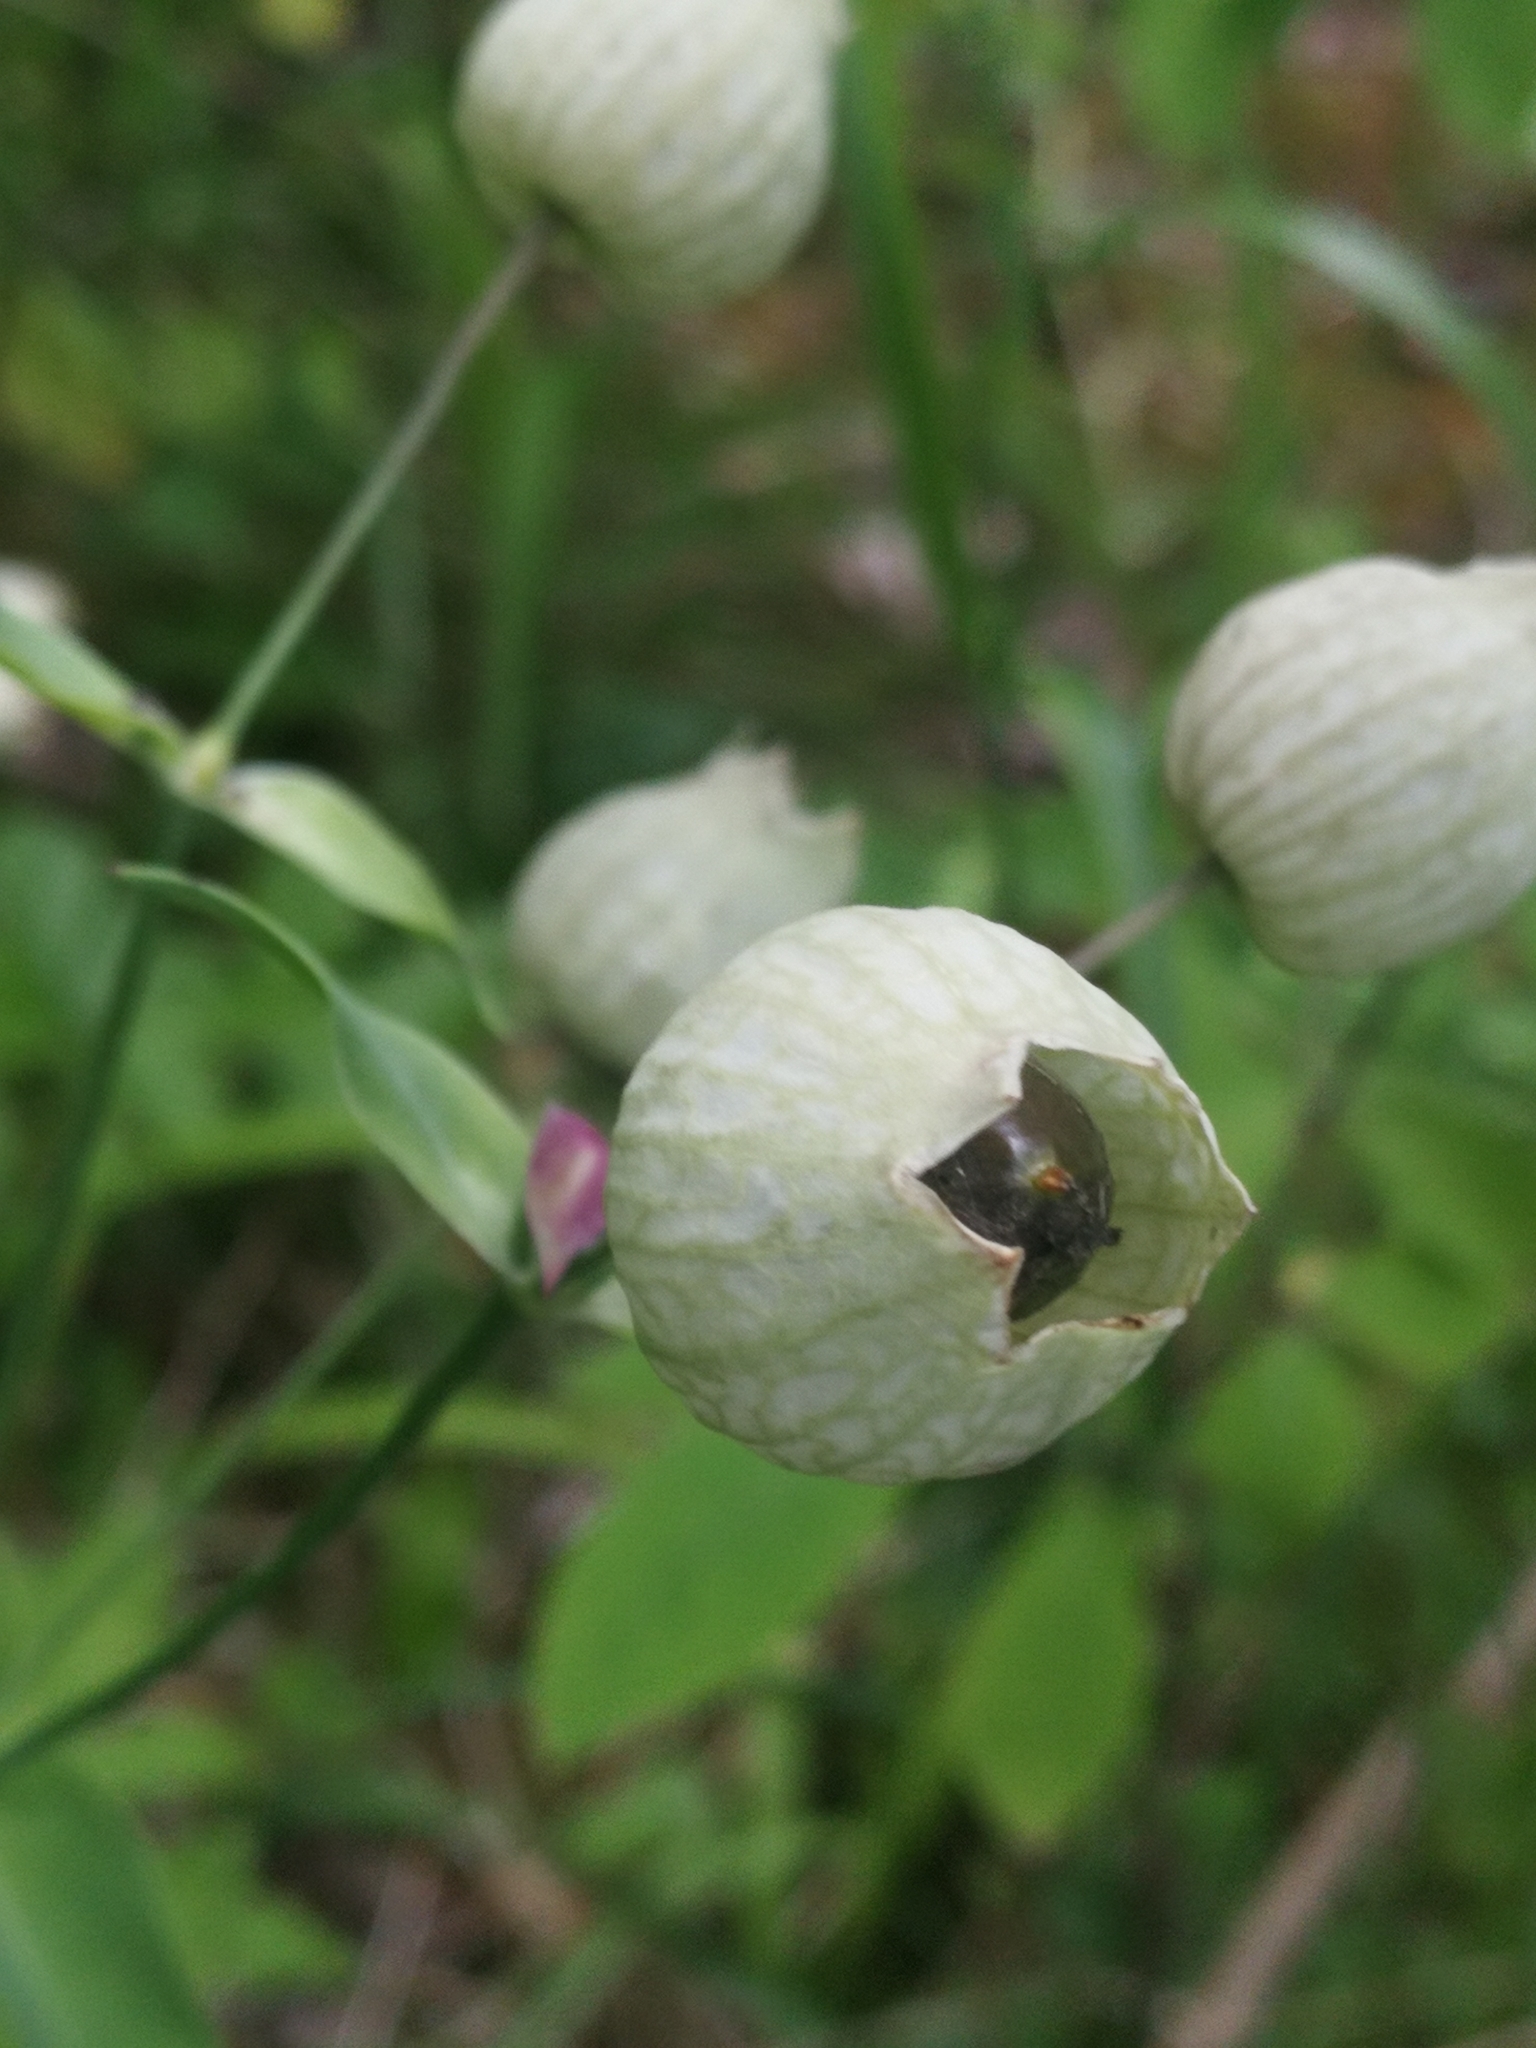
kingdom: Plantae
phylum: Tracheophyta
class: Magnoliopsida
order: Caryophyllales
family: Caryophyllaceae
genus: Silene
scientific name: Silene vulgaris
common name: Bladder campion
